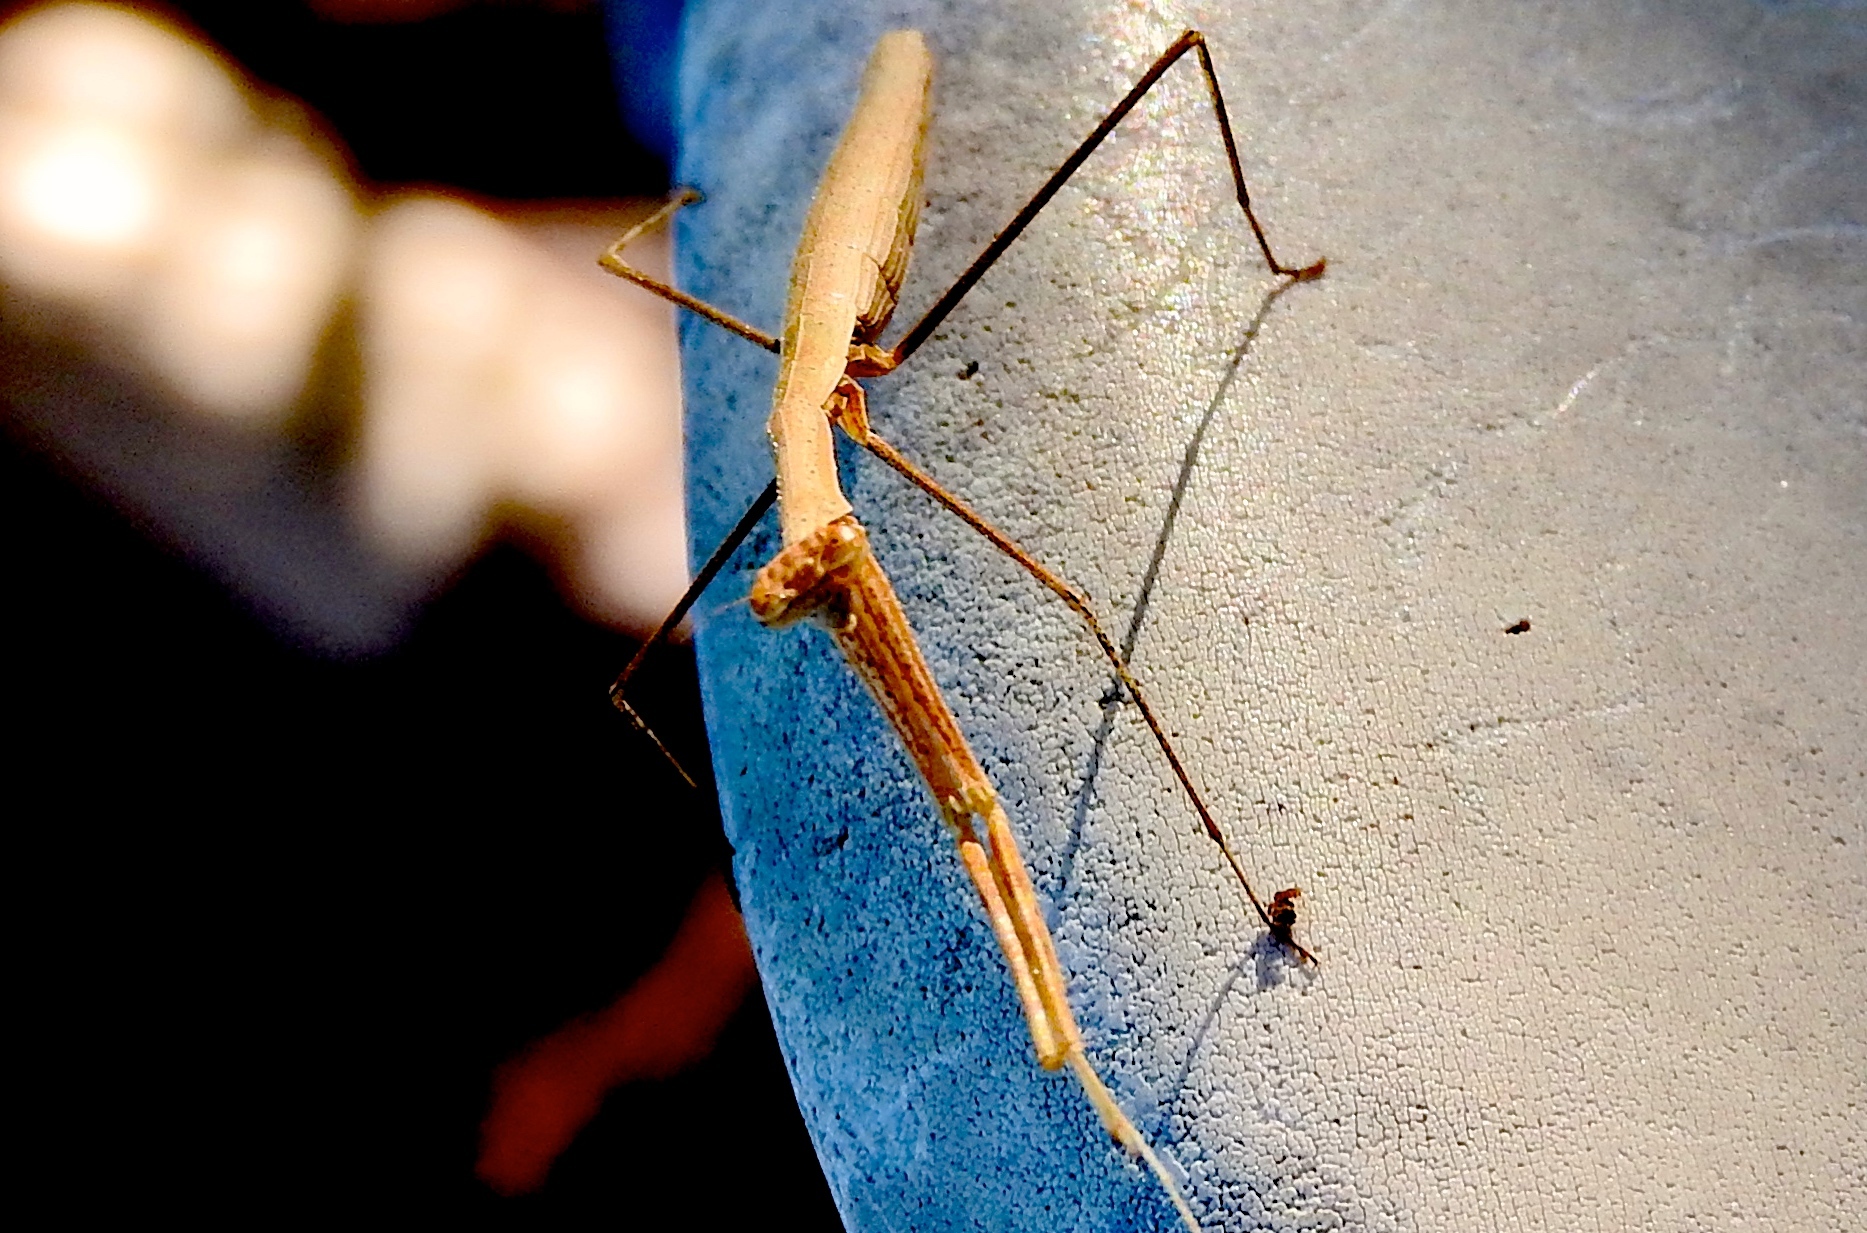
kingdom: Animalia
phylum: Arthropoda
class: Insecta
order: Mantodea
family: Thespidae
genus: Bistanta
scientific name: Bistanta mexicana
